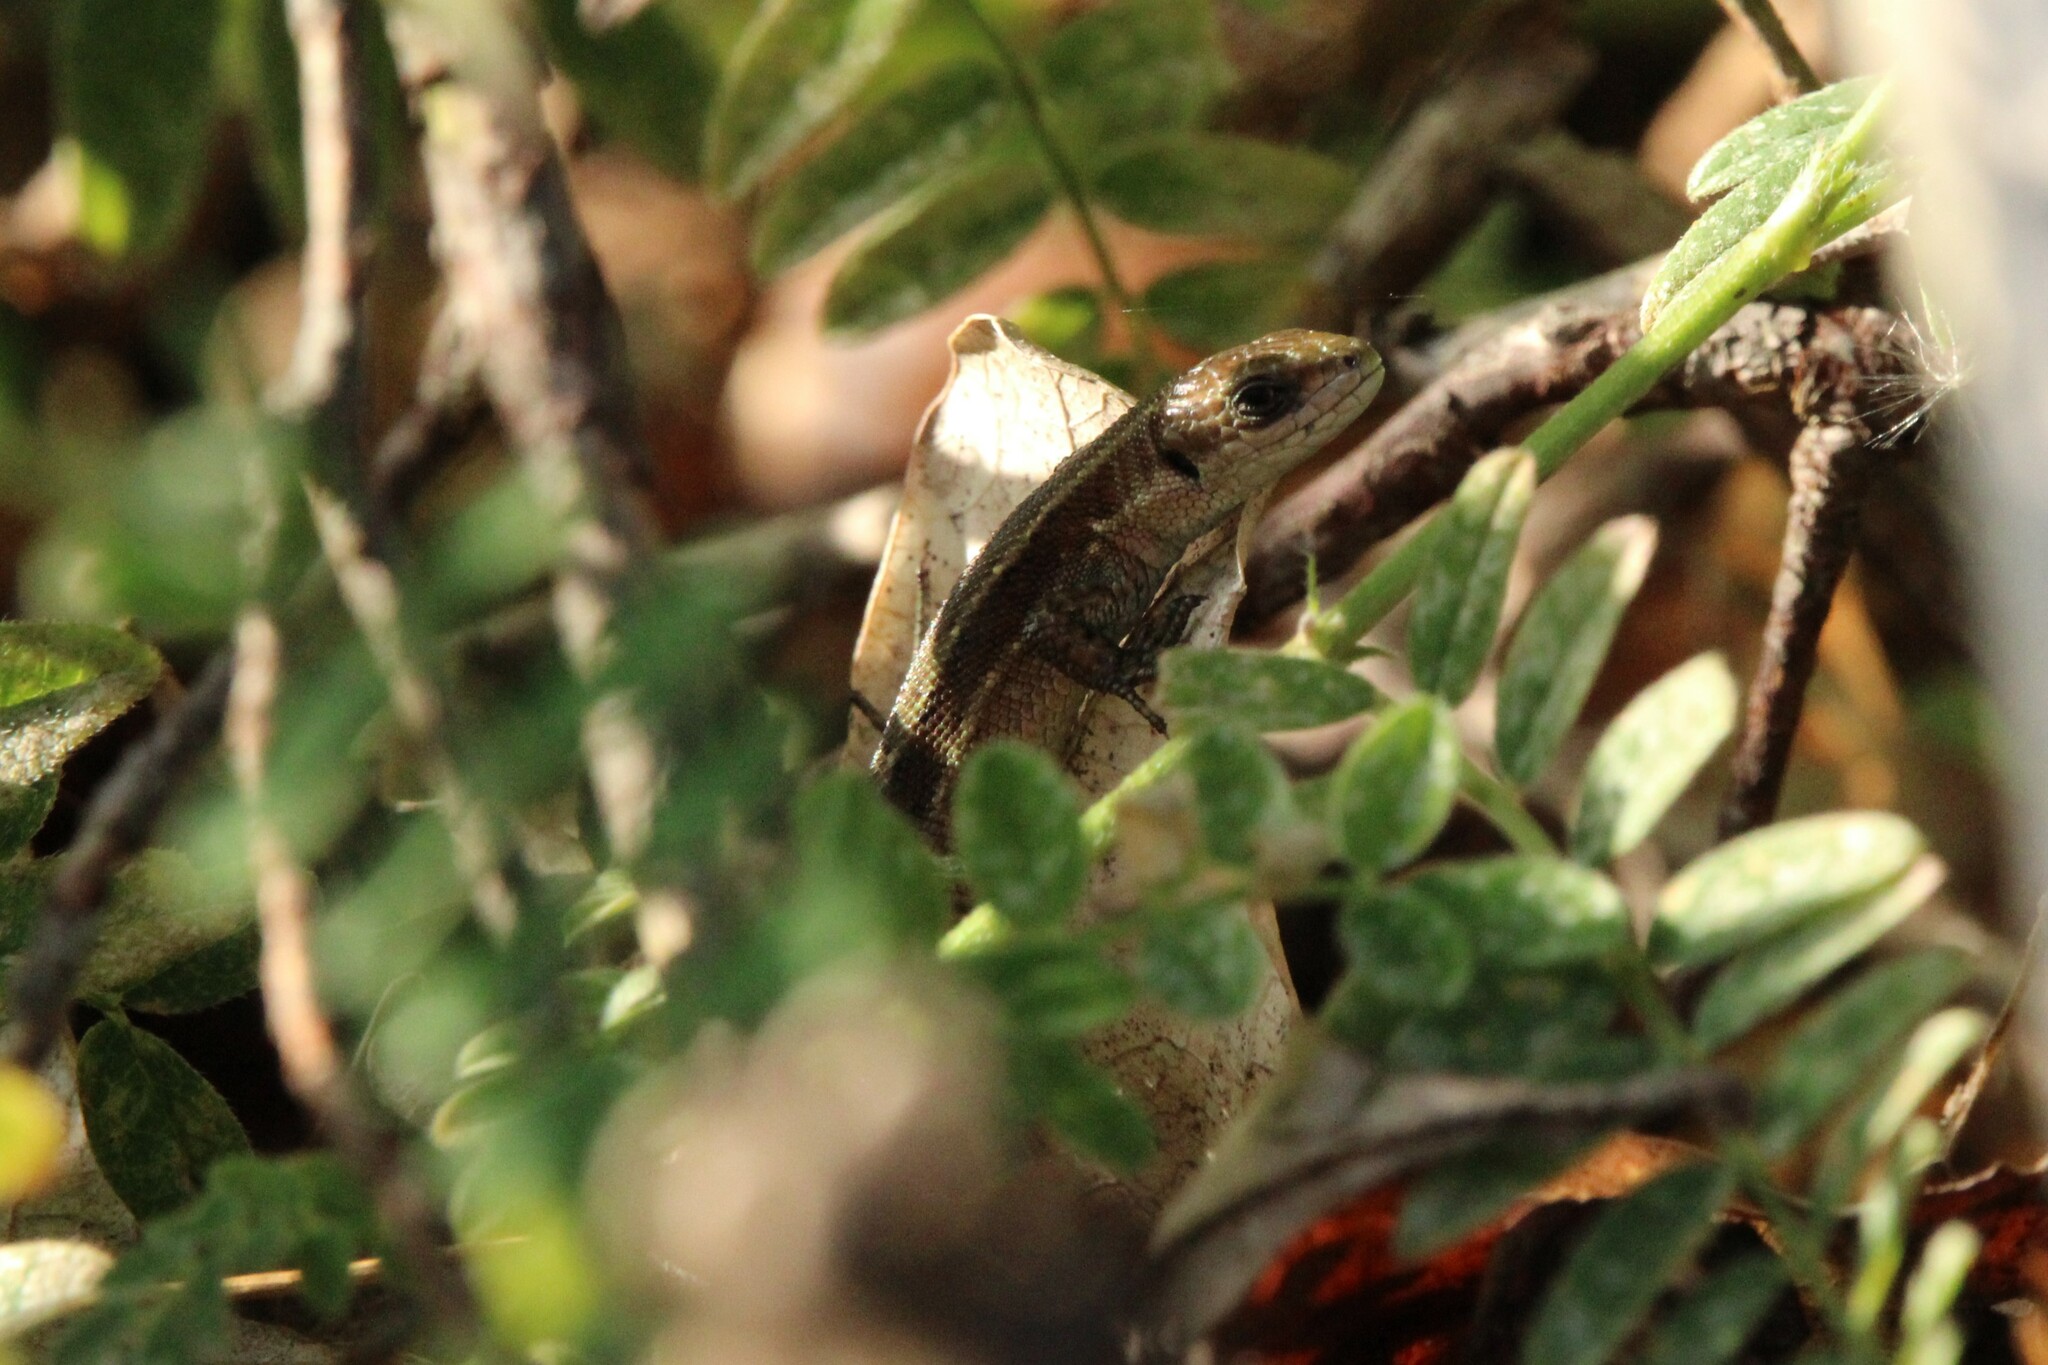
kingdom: Animalia
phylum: Chordata
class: Squamata
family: Lacertidae
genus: Zootoca
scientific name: Zootoca vivipara
